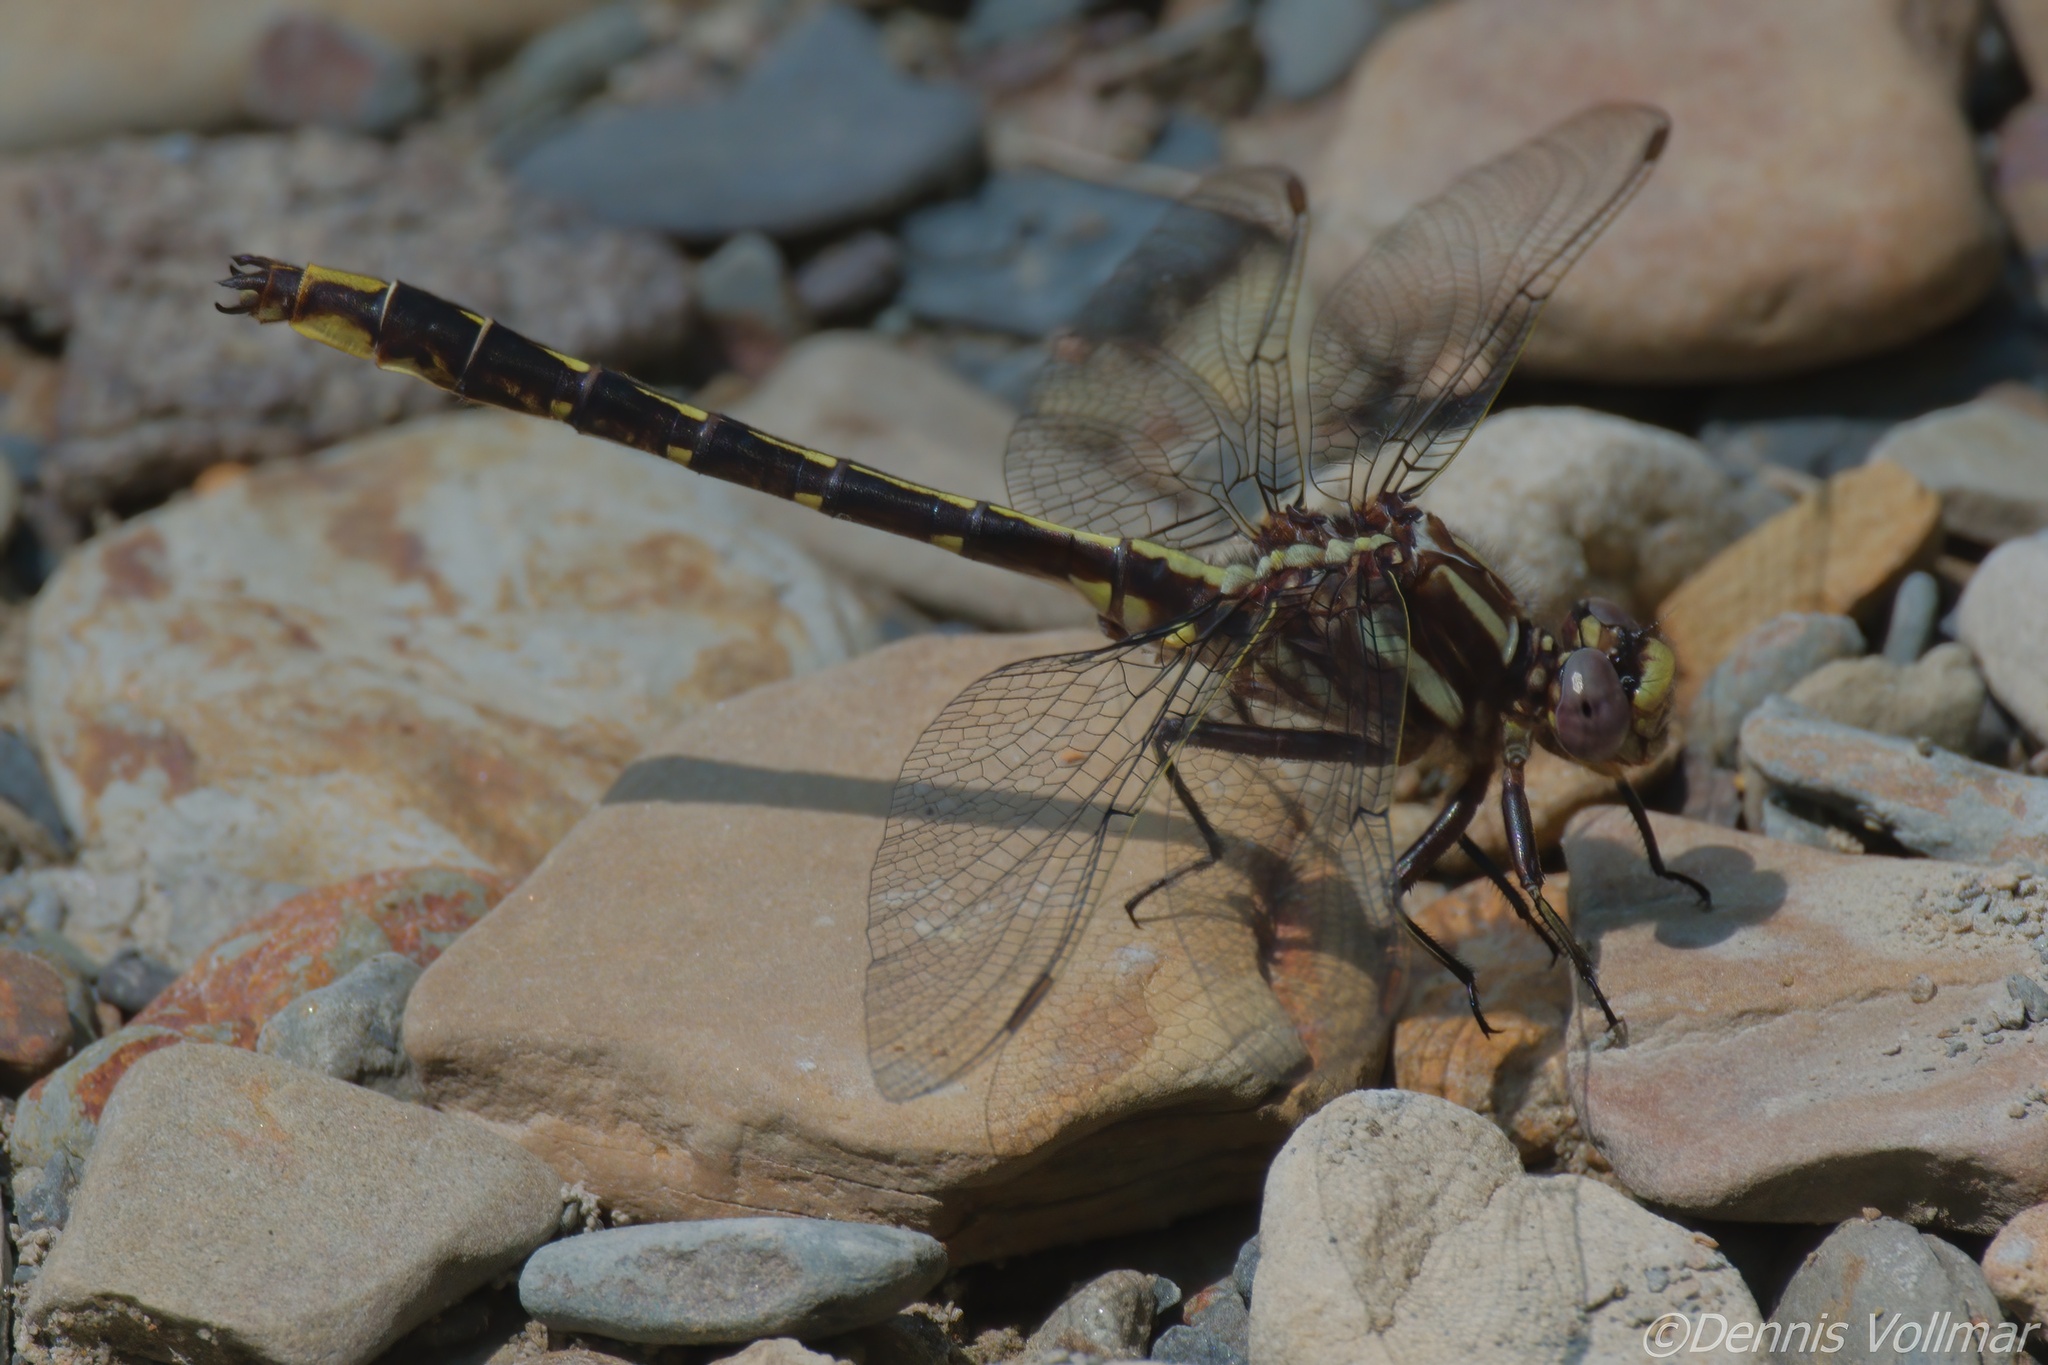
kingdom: Animalia
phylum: Arthropoda
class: Insecta
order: Odonata
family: Gomphidae
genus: Phanogomphus
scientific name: Phanogomphus lividus
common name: Ashy clubtail
